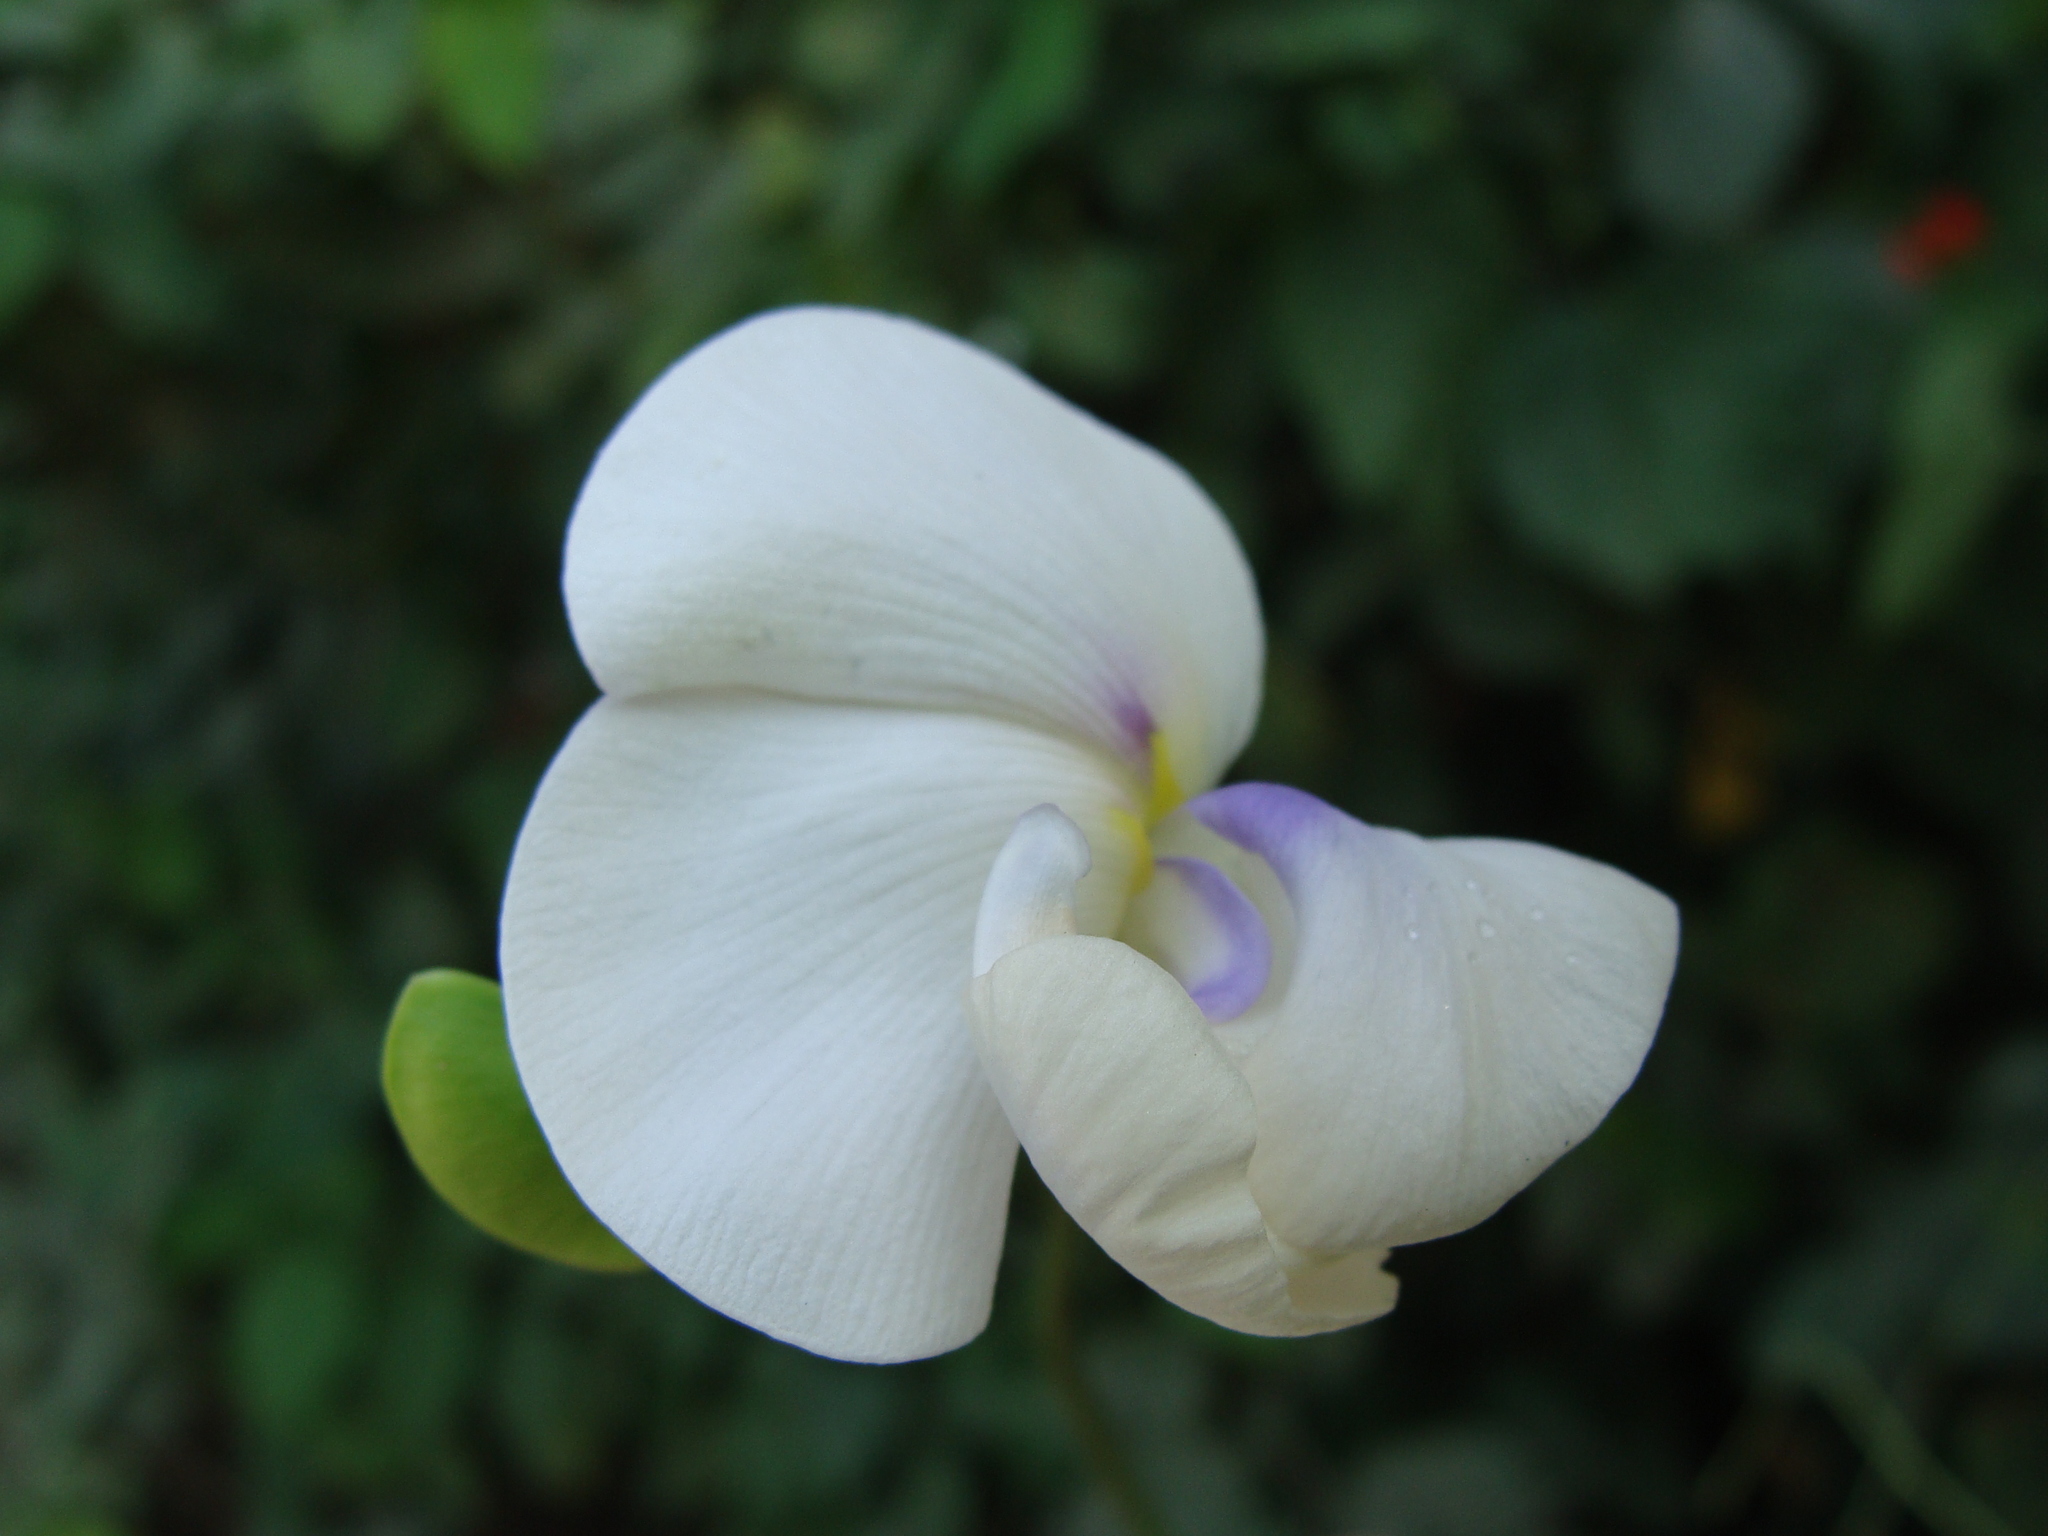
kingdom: Plantae
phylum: Tracheophyta
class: Magnoliopsida
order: Fabales
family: Fabaceae
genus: Vigna
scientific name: Vigna vexillata
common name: Zombi pea
